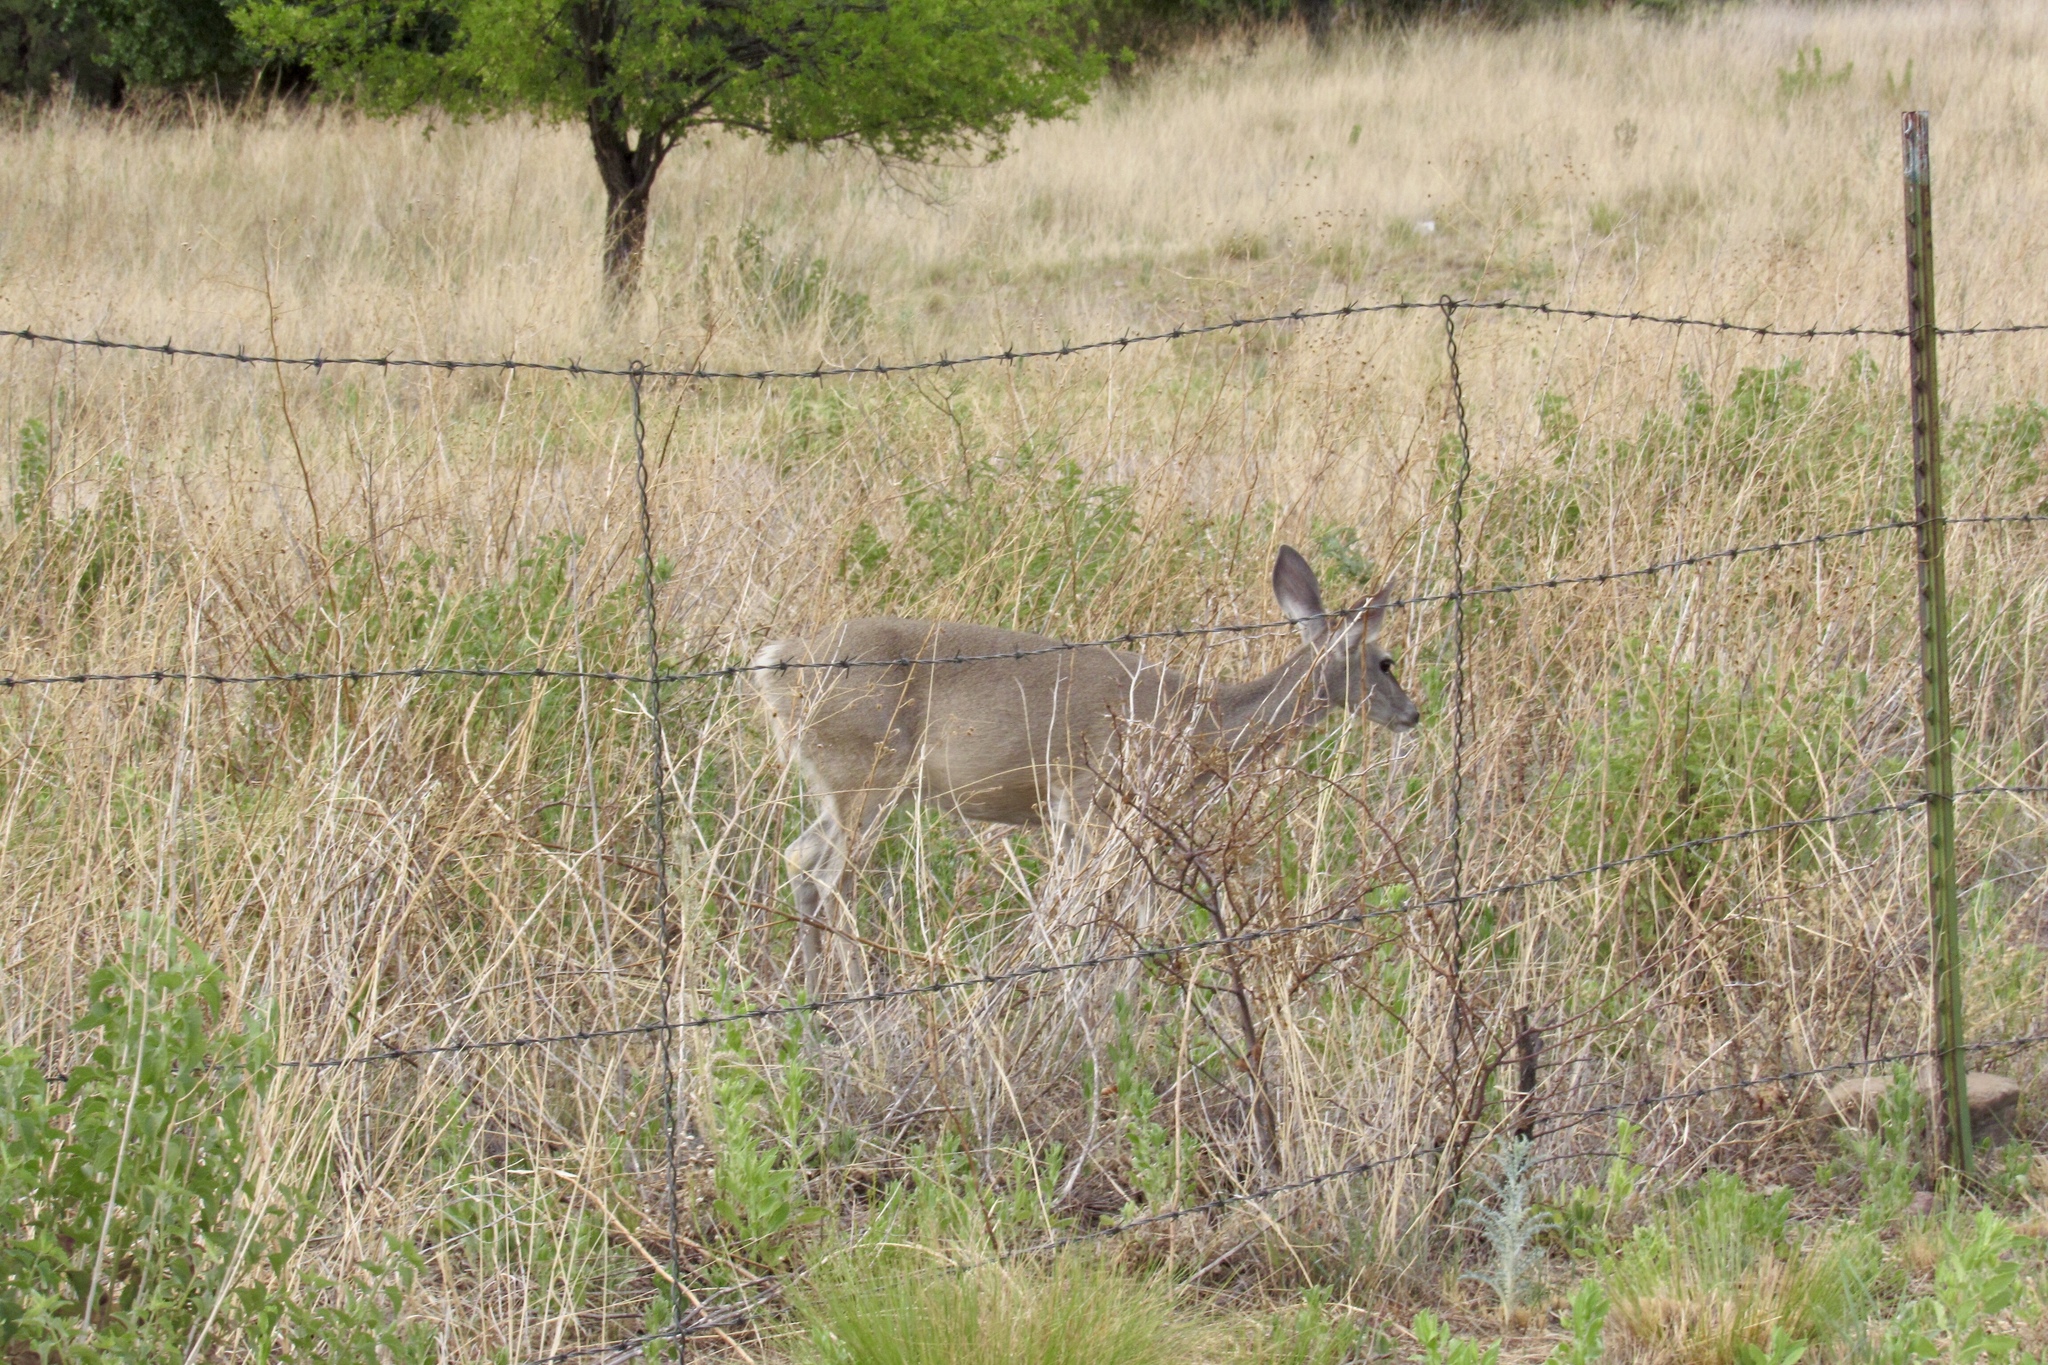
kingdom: Animalia
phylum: Chordata
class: Mammalia
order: Artiodactyla
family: Cervidae
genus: Odocoileus
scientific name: Odocoileus virginianus
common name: White-tailed deer
